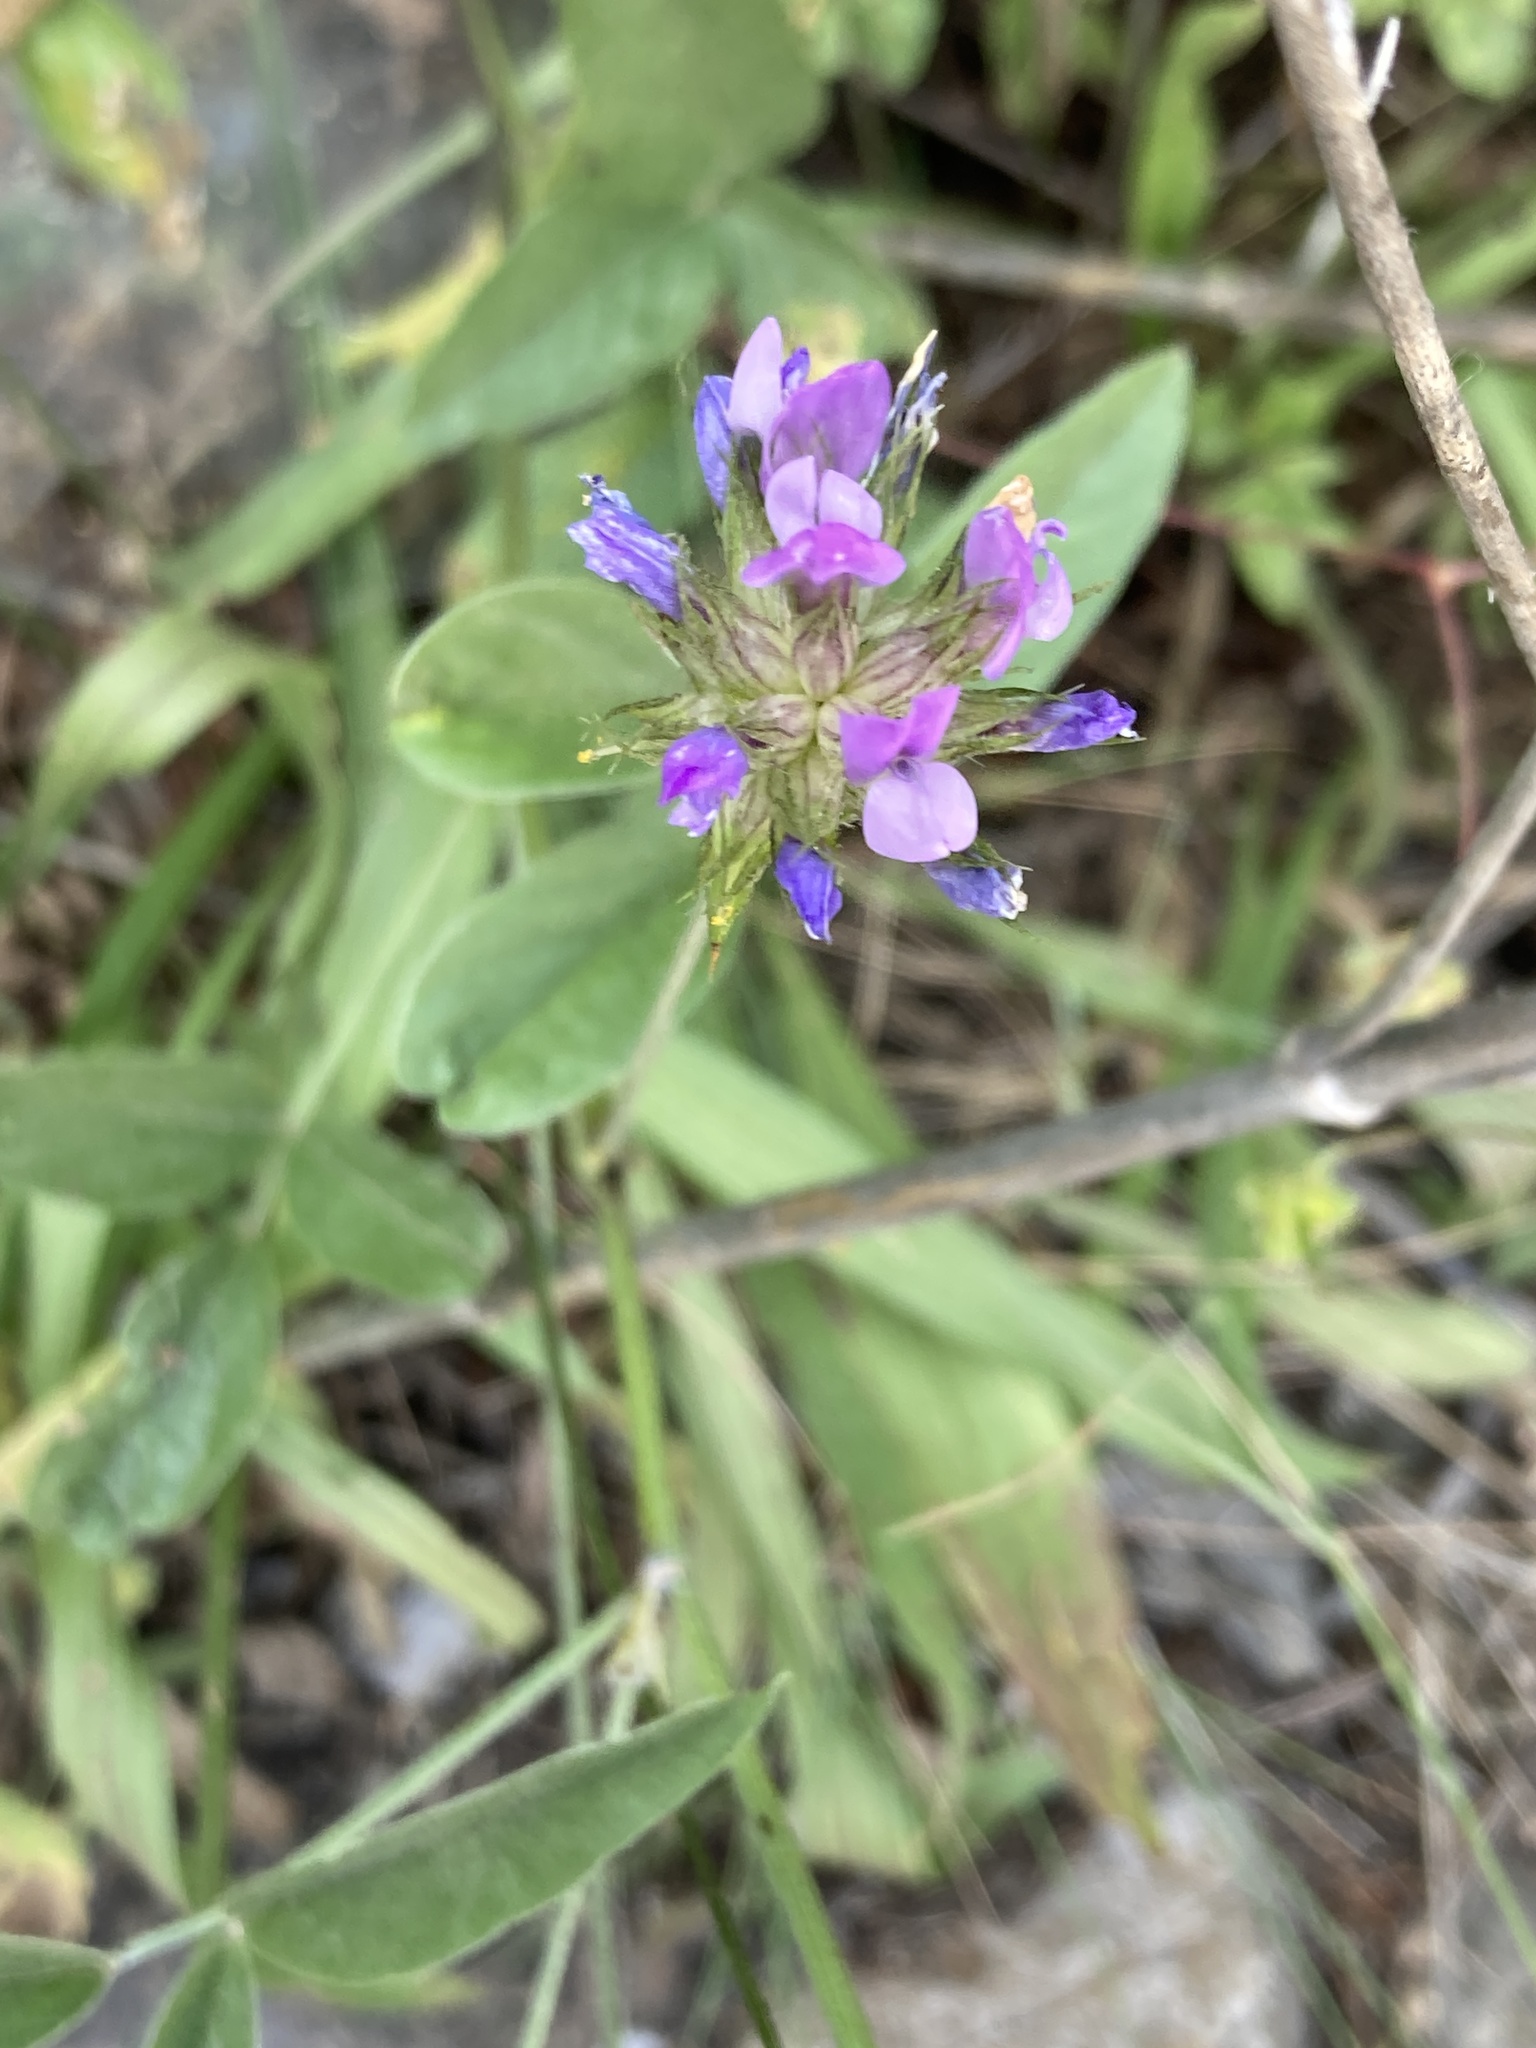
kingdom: Plantae
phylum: Tracheophyta
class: Magnoliopsida
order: Fabales
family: Fabaceae
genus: Bituminaria
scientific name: Bituminaria bituminosa
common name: Arabian pea
